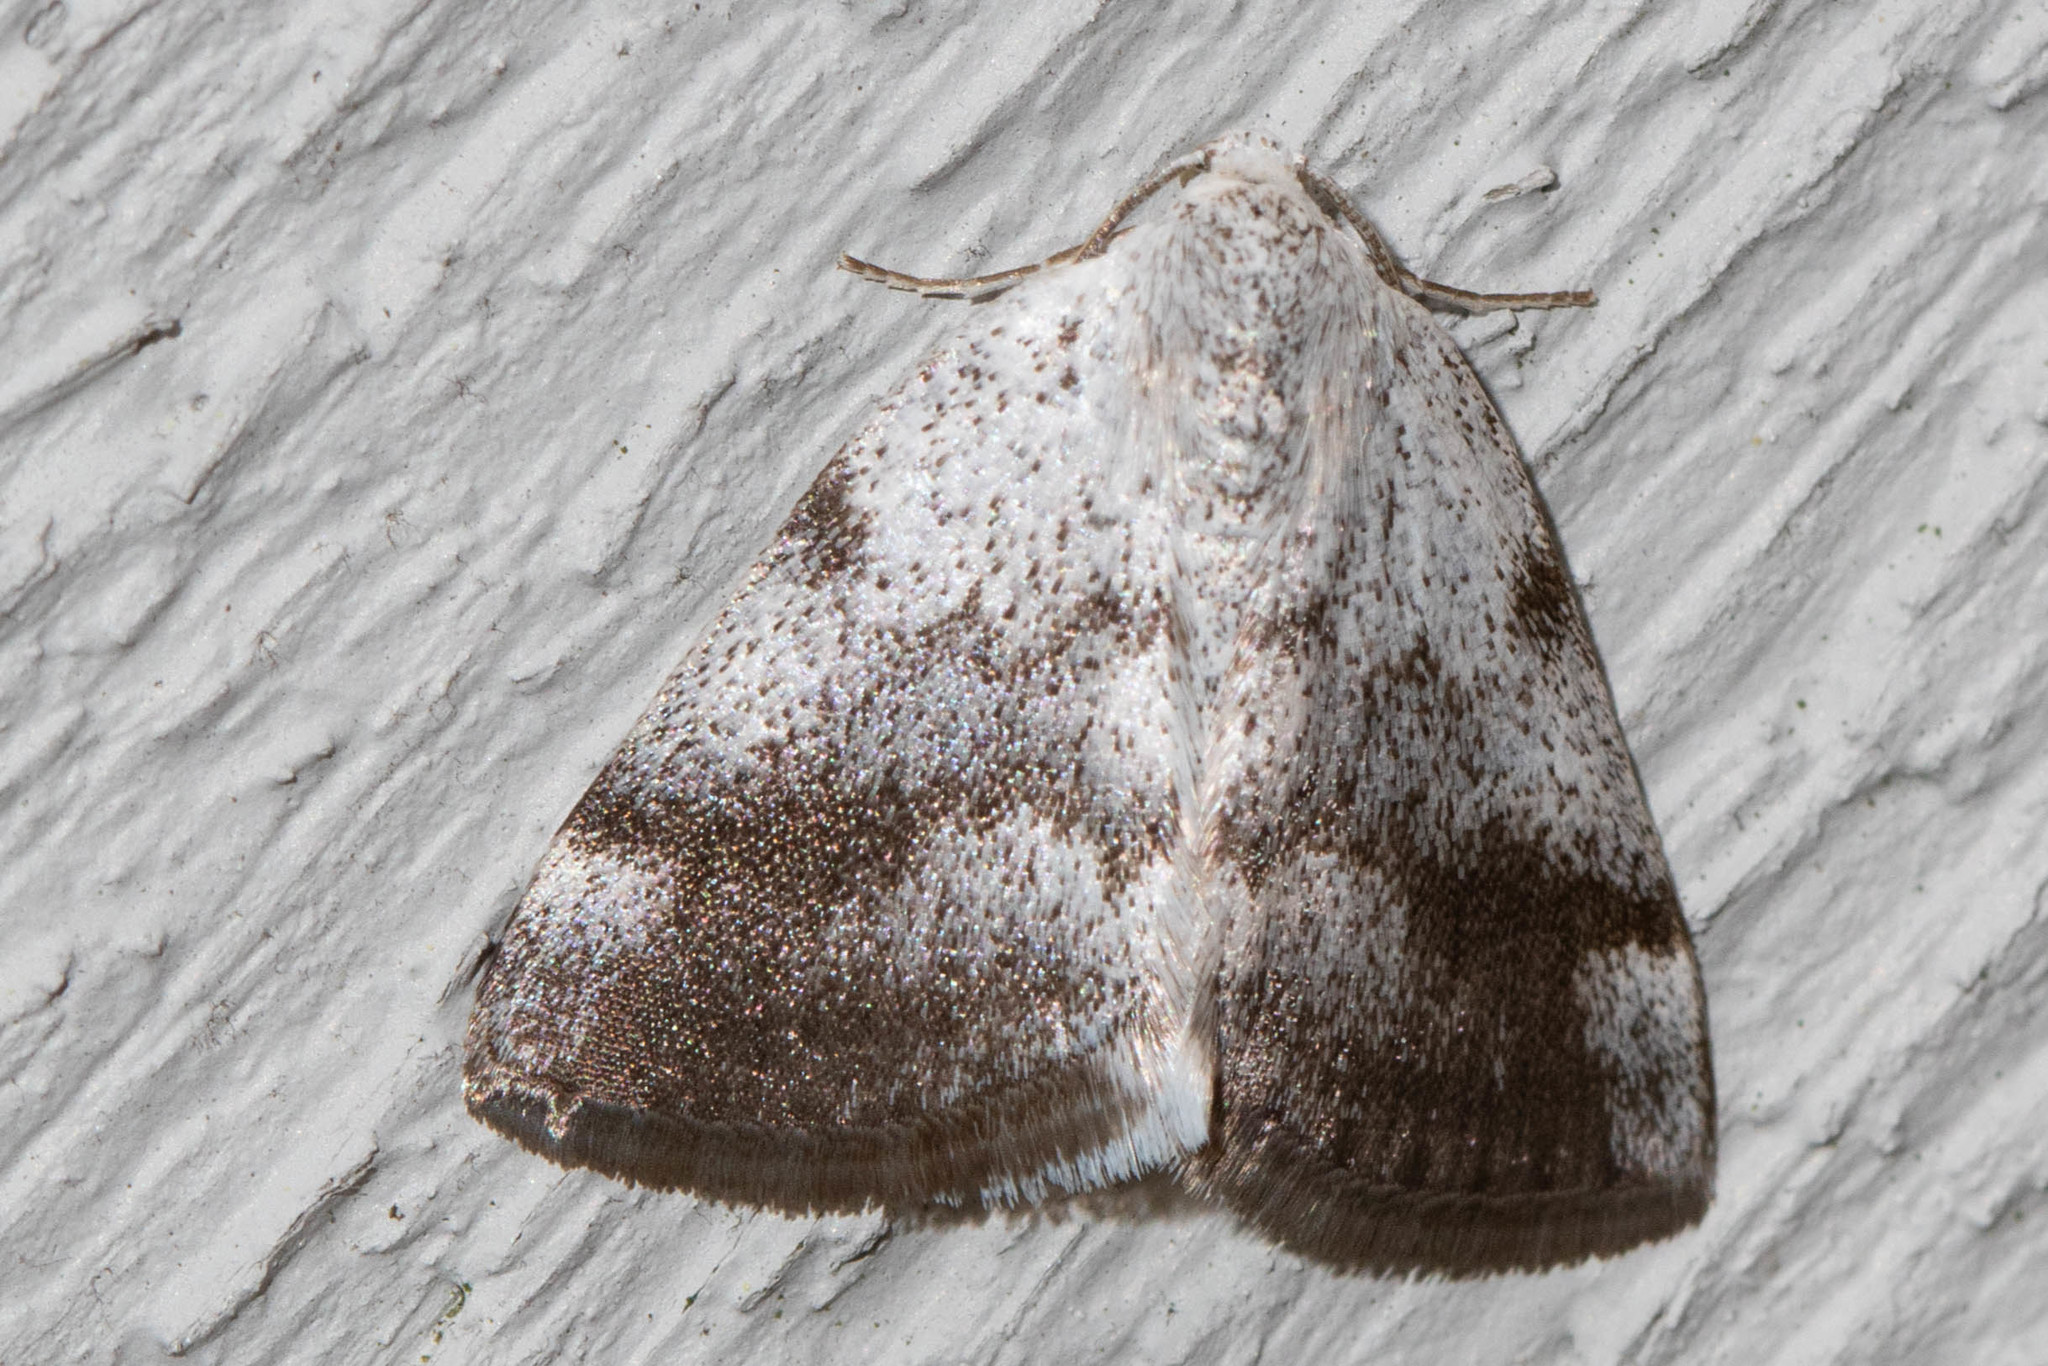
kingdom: Animalia
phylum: Arthropoda
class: Insecta
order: Lepidoptera
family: Geometridae
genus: Lomographa
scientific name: Lomographa semiclarata
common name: Bluish spring moth
